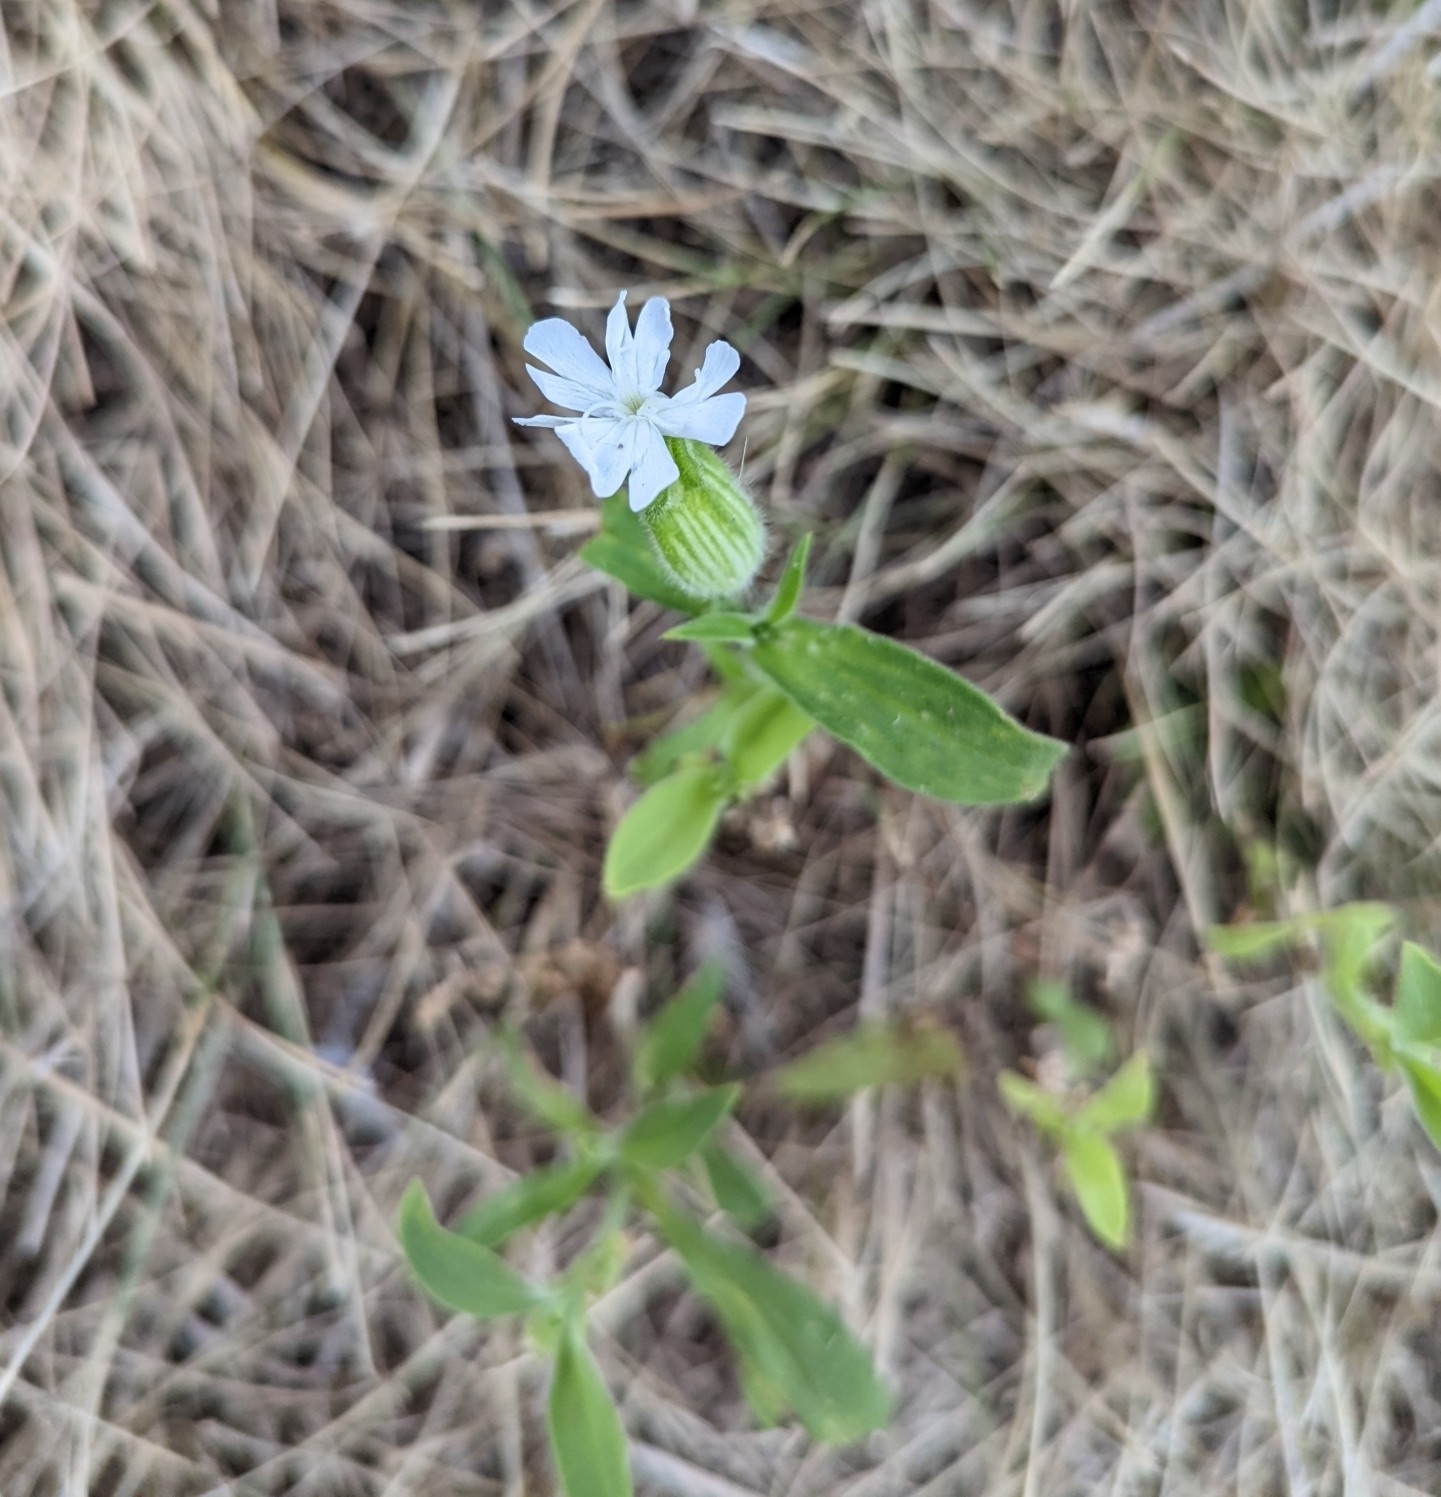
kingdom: Plantae
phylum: Tracheophyta
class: Magnoliopsida
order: Caryophyllales
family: Caryophyllaceae
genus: Silene
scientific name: Silene latifolia
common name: White campion
